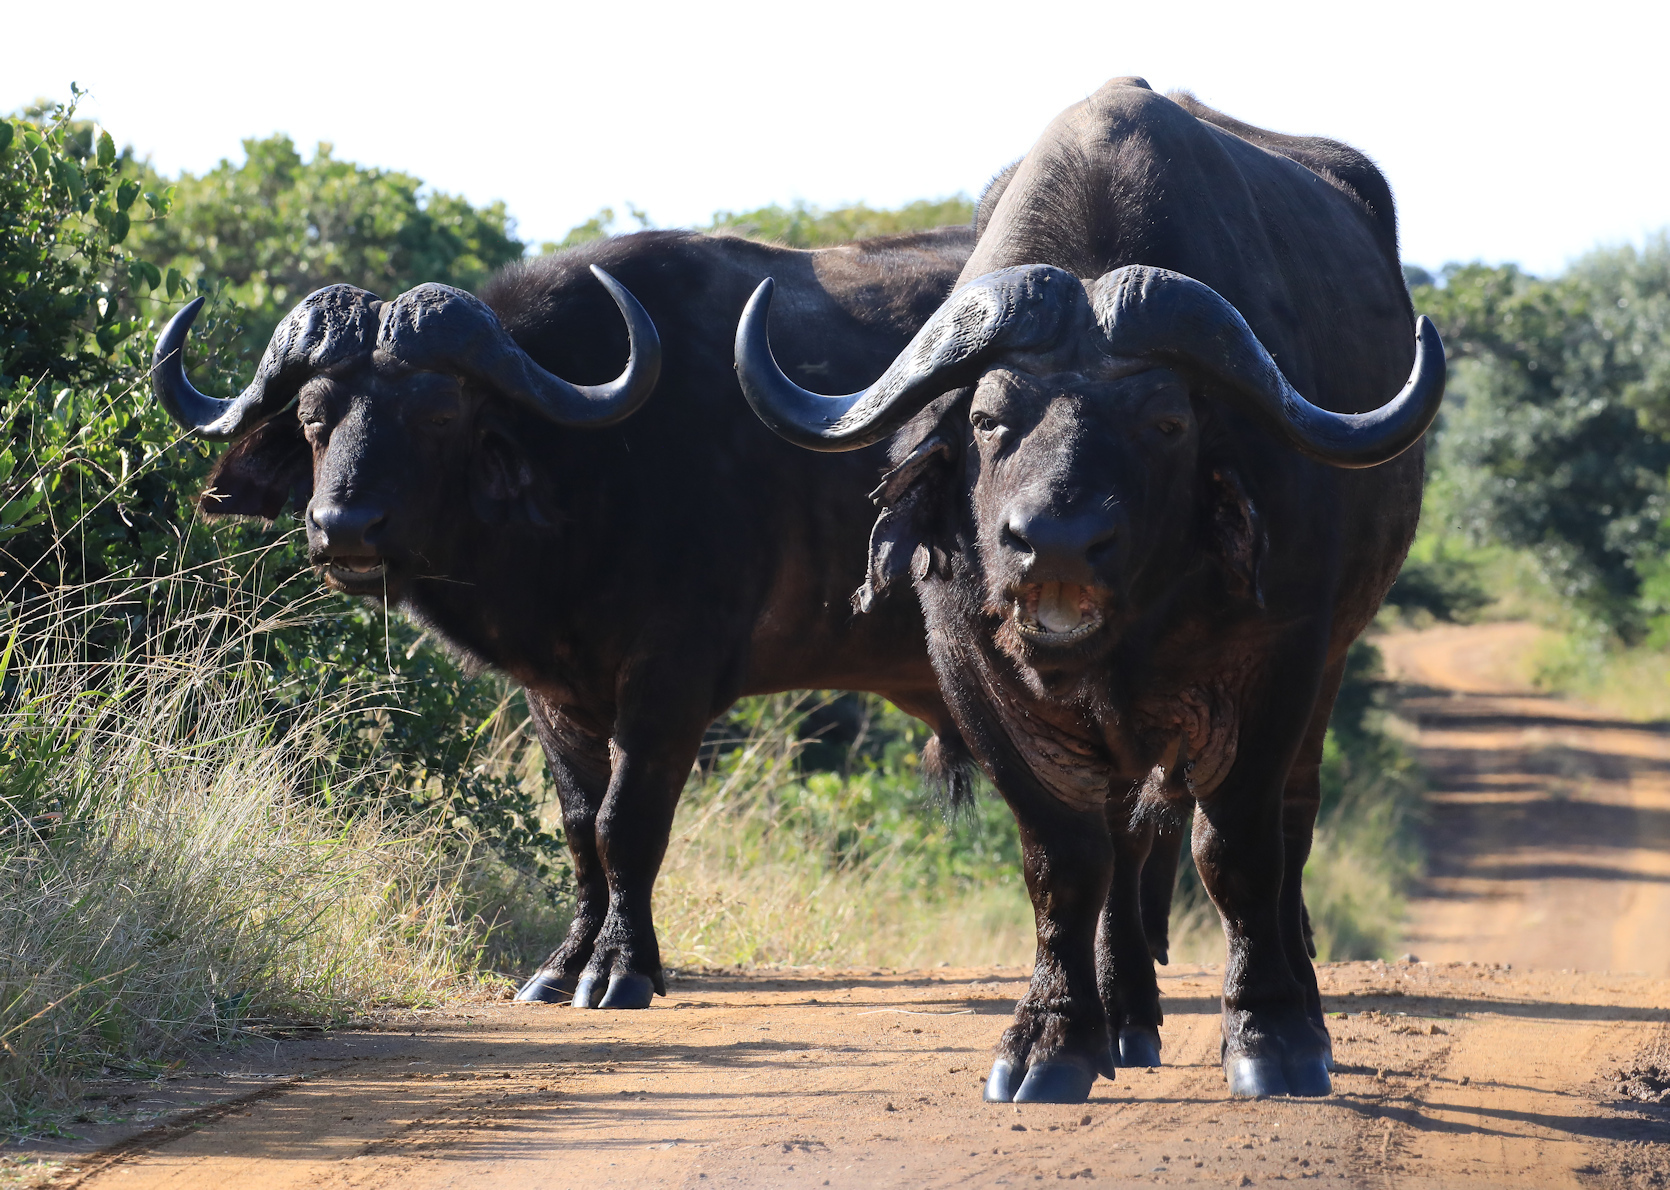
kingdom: Animalia
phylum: Chordata
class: Mammalia
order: Artiodactyla
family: Bovidae
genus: Syncerus
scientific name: Syncerus caffer
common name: African buffalo
